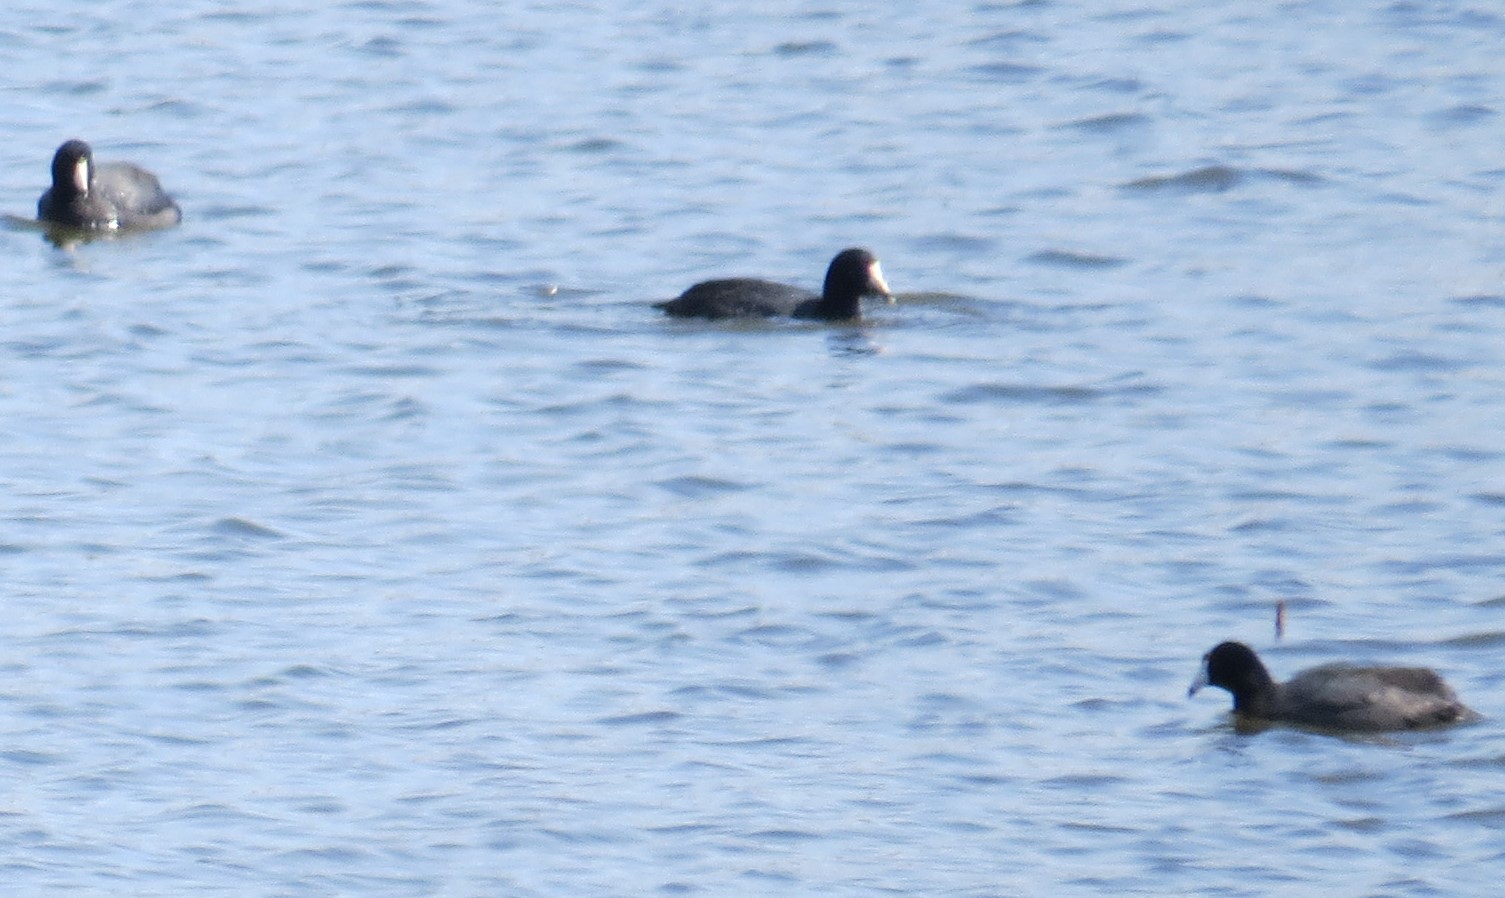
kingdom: Animalia
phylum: Chordata
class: Aves
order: Gruiformes
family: Rallidae
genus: Fulica
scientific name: Fulica americana
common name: American coot
